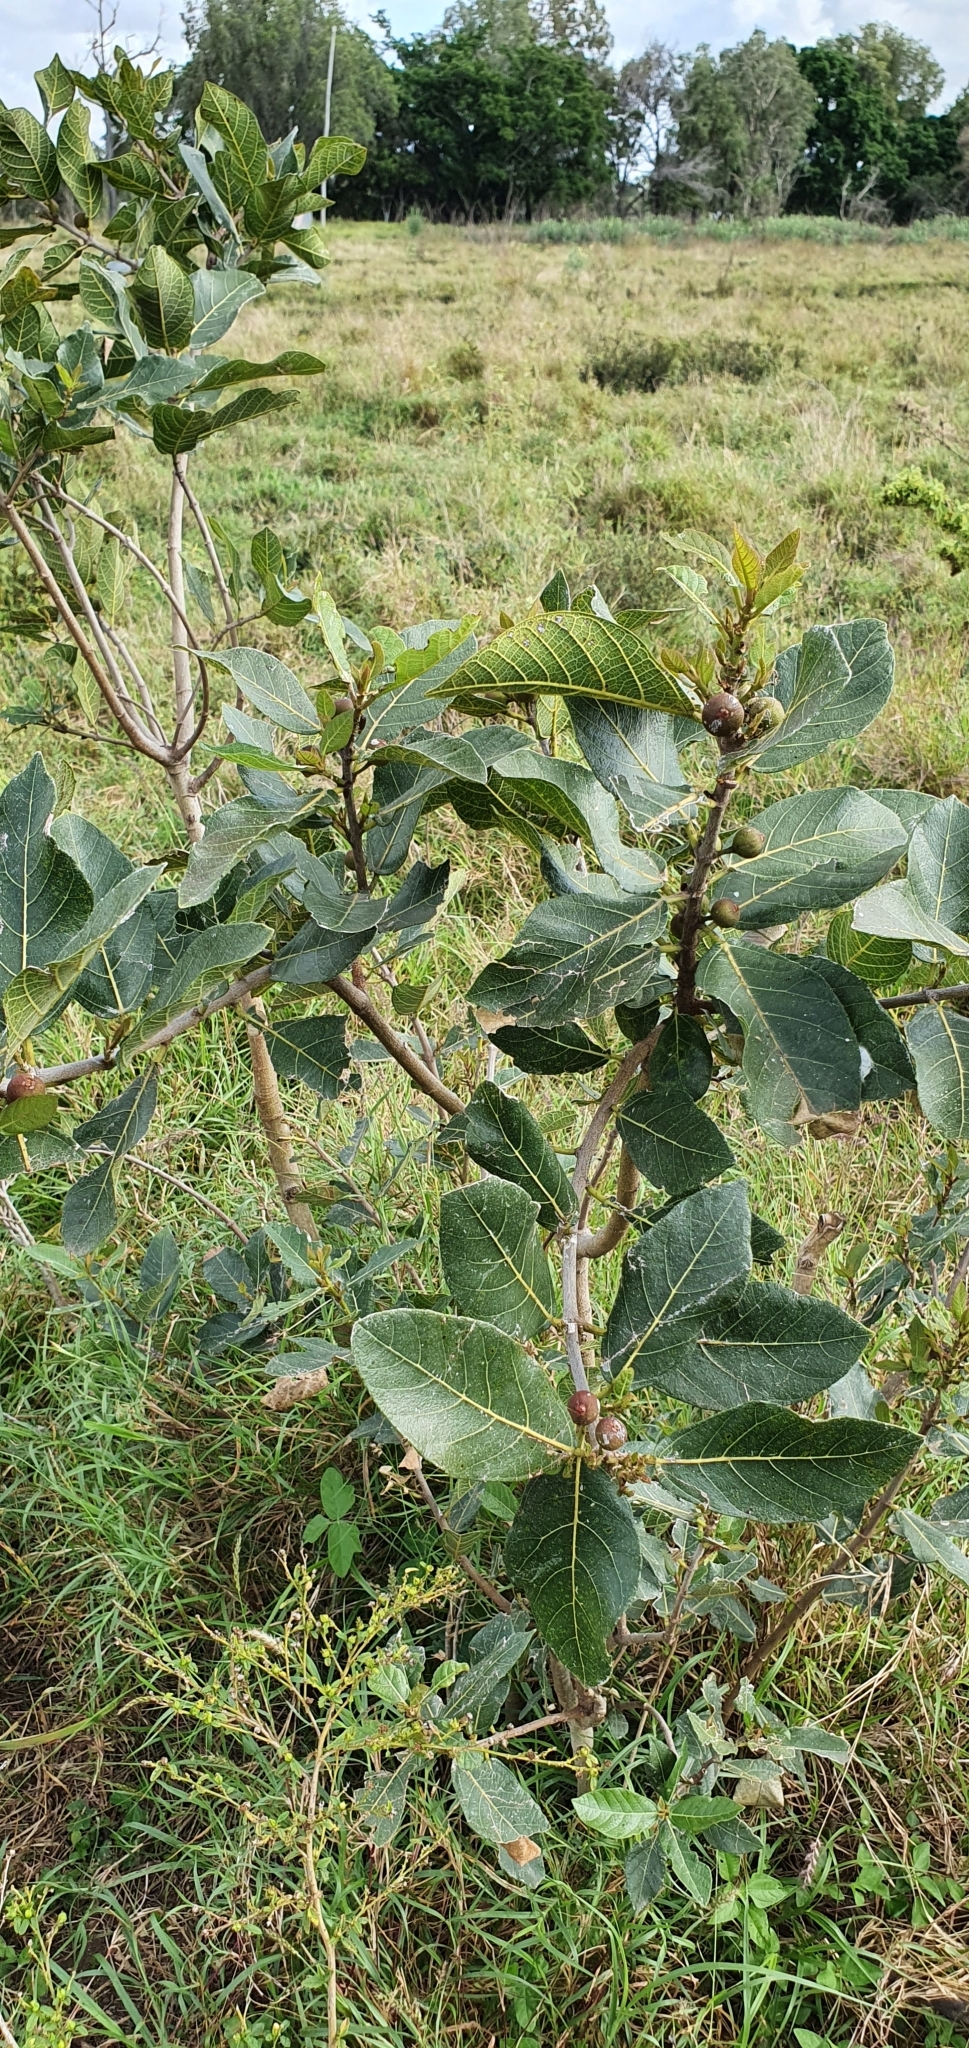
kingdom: Plantae
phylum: Tracheophyta
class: Magnoliopsida
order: Rosales
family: Moraceae
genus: Ficus
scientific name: Ficus opposita
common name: Figwood
